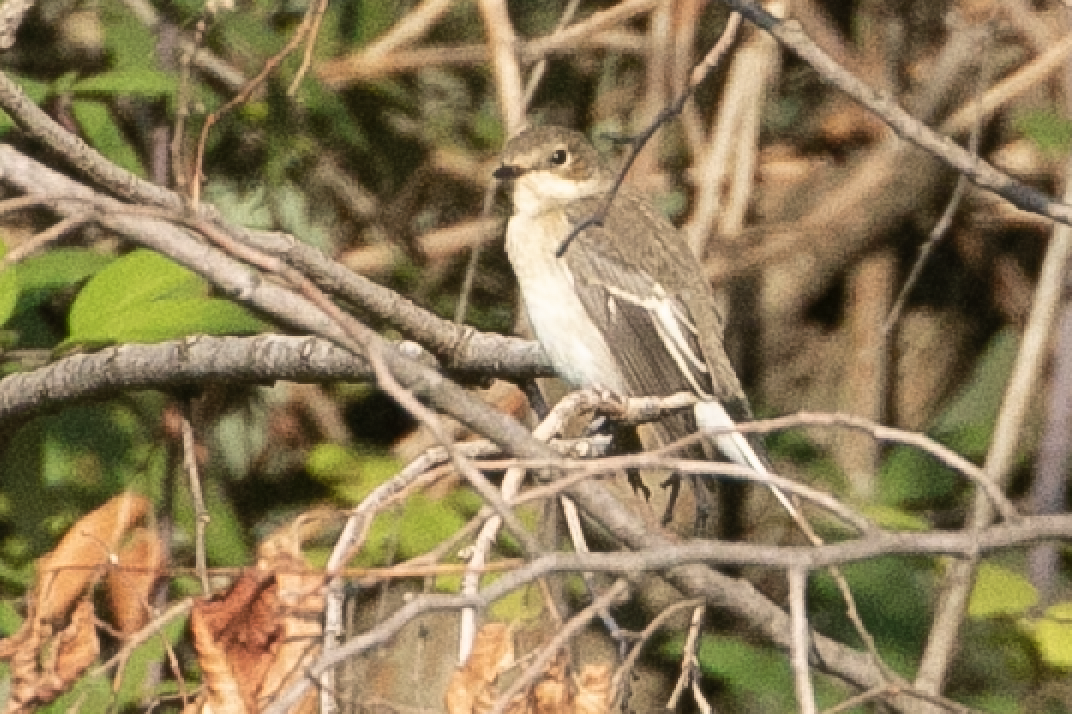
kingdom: Animalia
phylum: Chordata
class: Aves
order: Passeriformes
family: Muscicapidae
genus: Ficedula
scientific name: Ficedula hypoleuca
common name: European pied flycatcher
